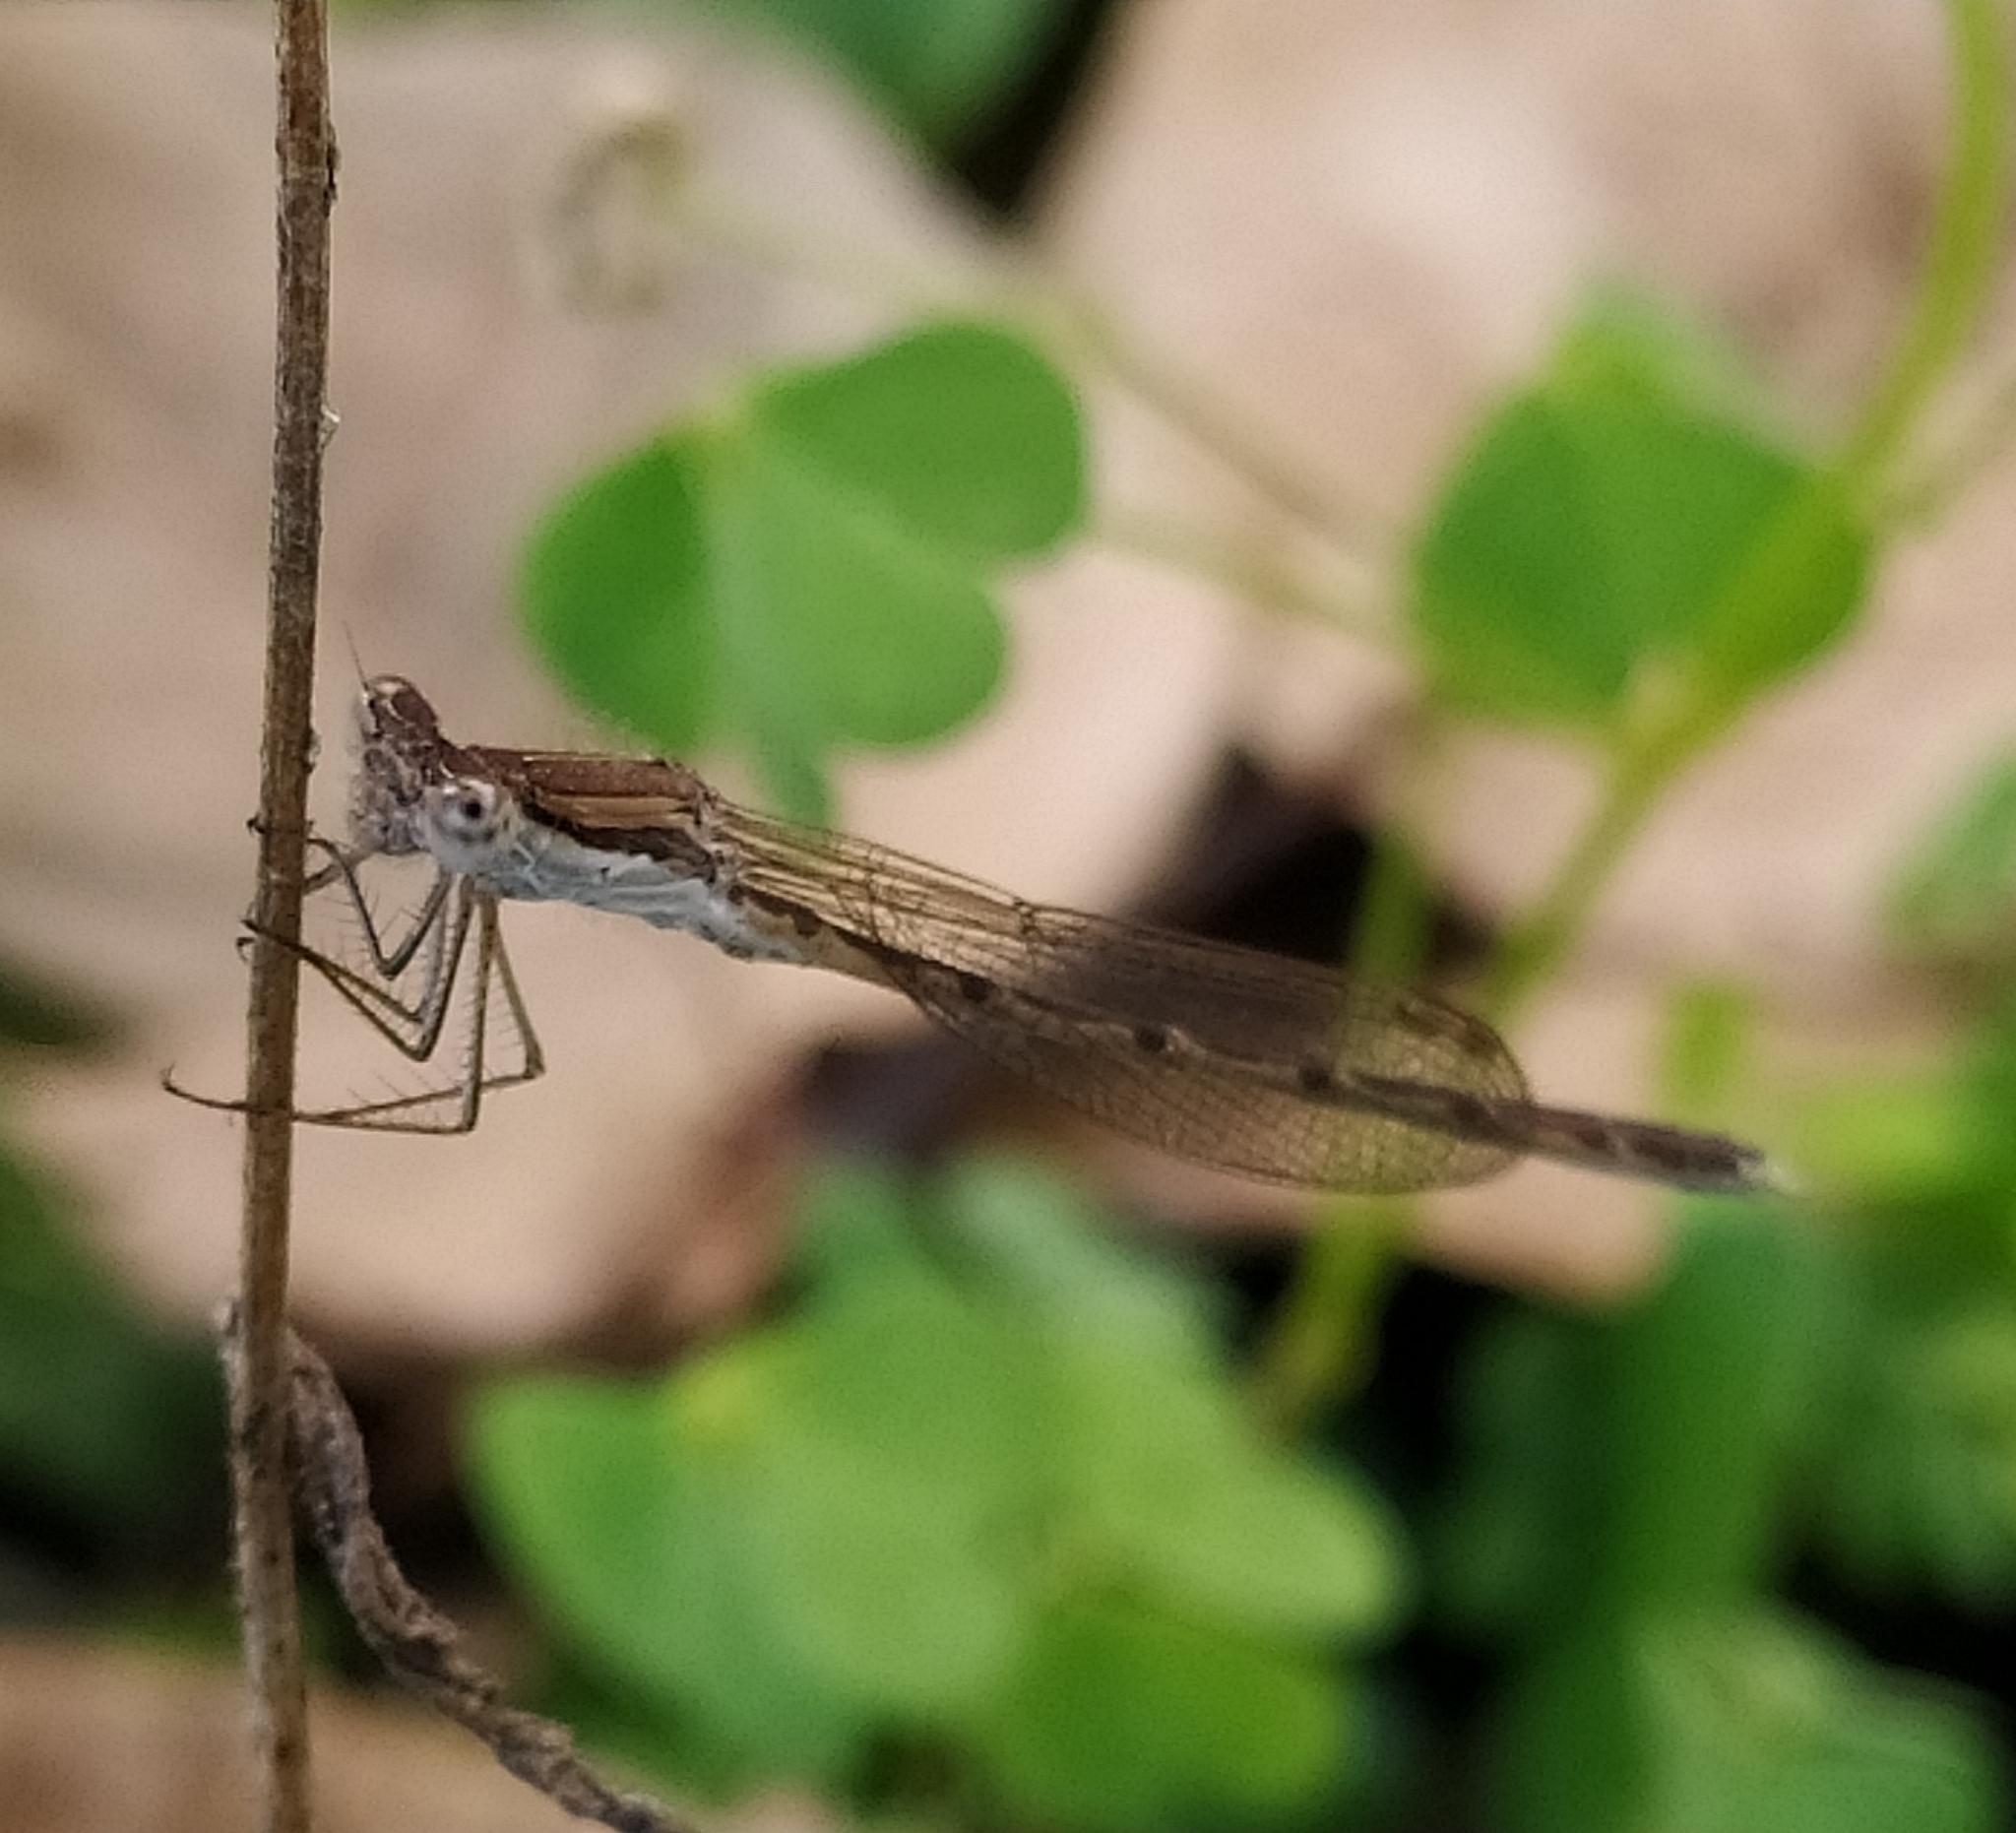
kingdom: Animalia
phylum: Arthropoda
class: Insecta
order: Odonata
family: Lestidae
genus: Sympecma
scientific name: Sympecma fusca
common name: Common winter damsel
